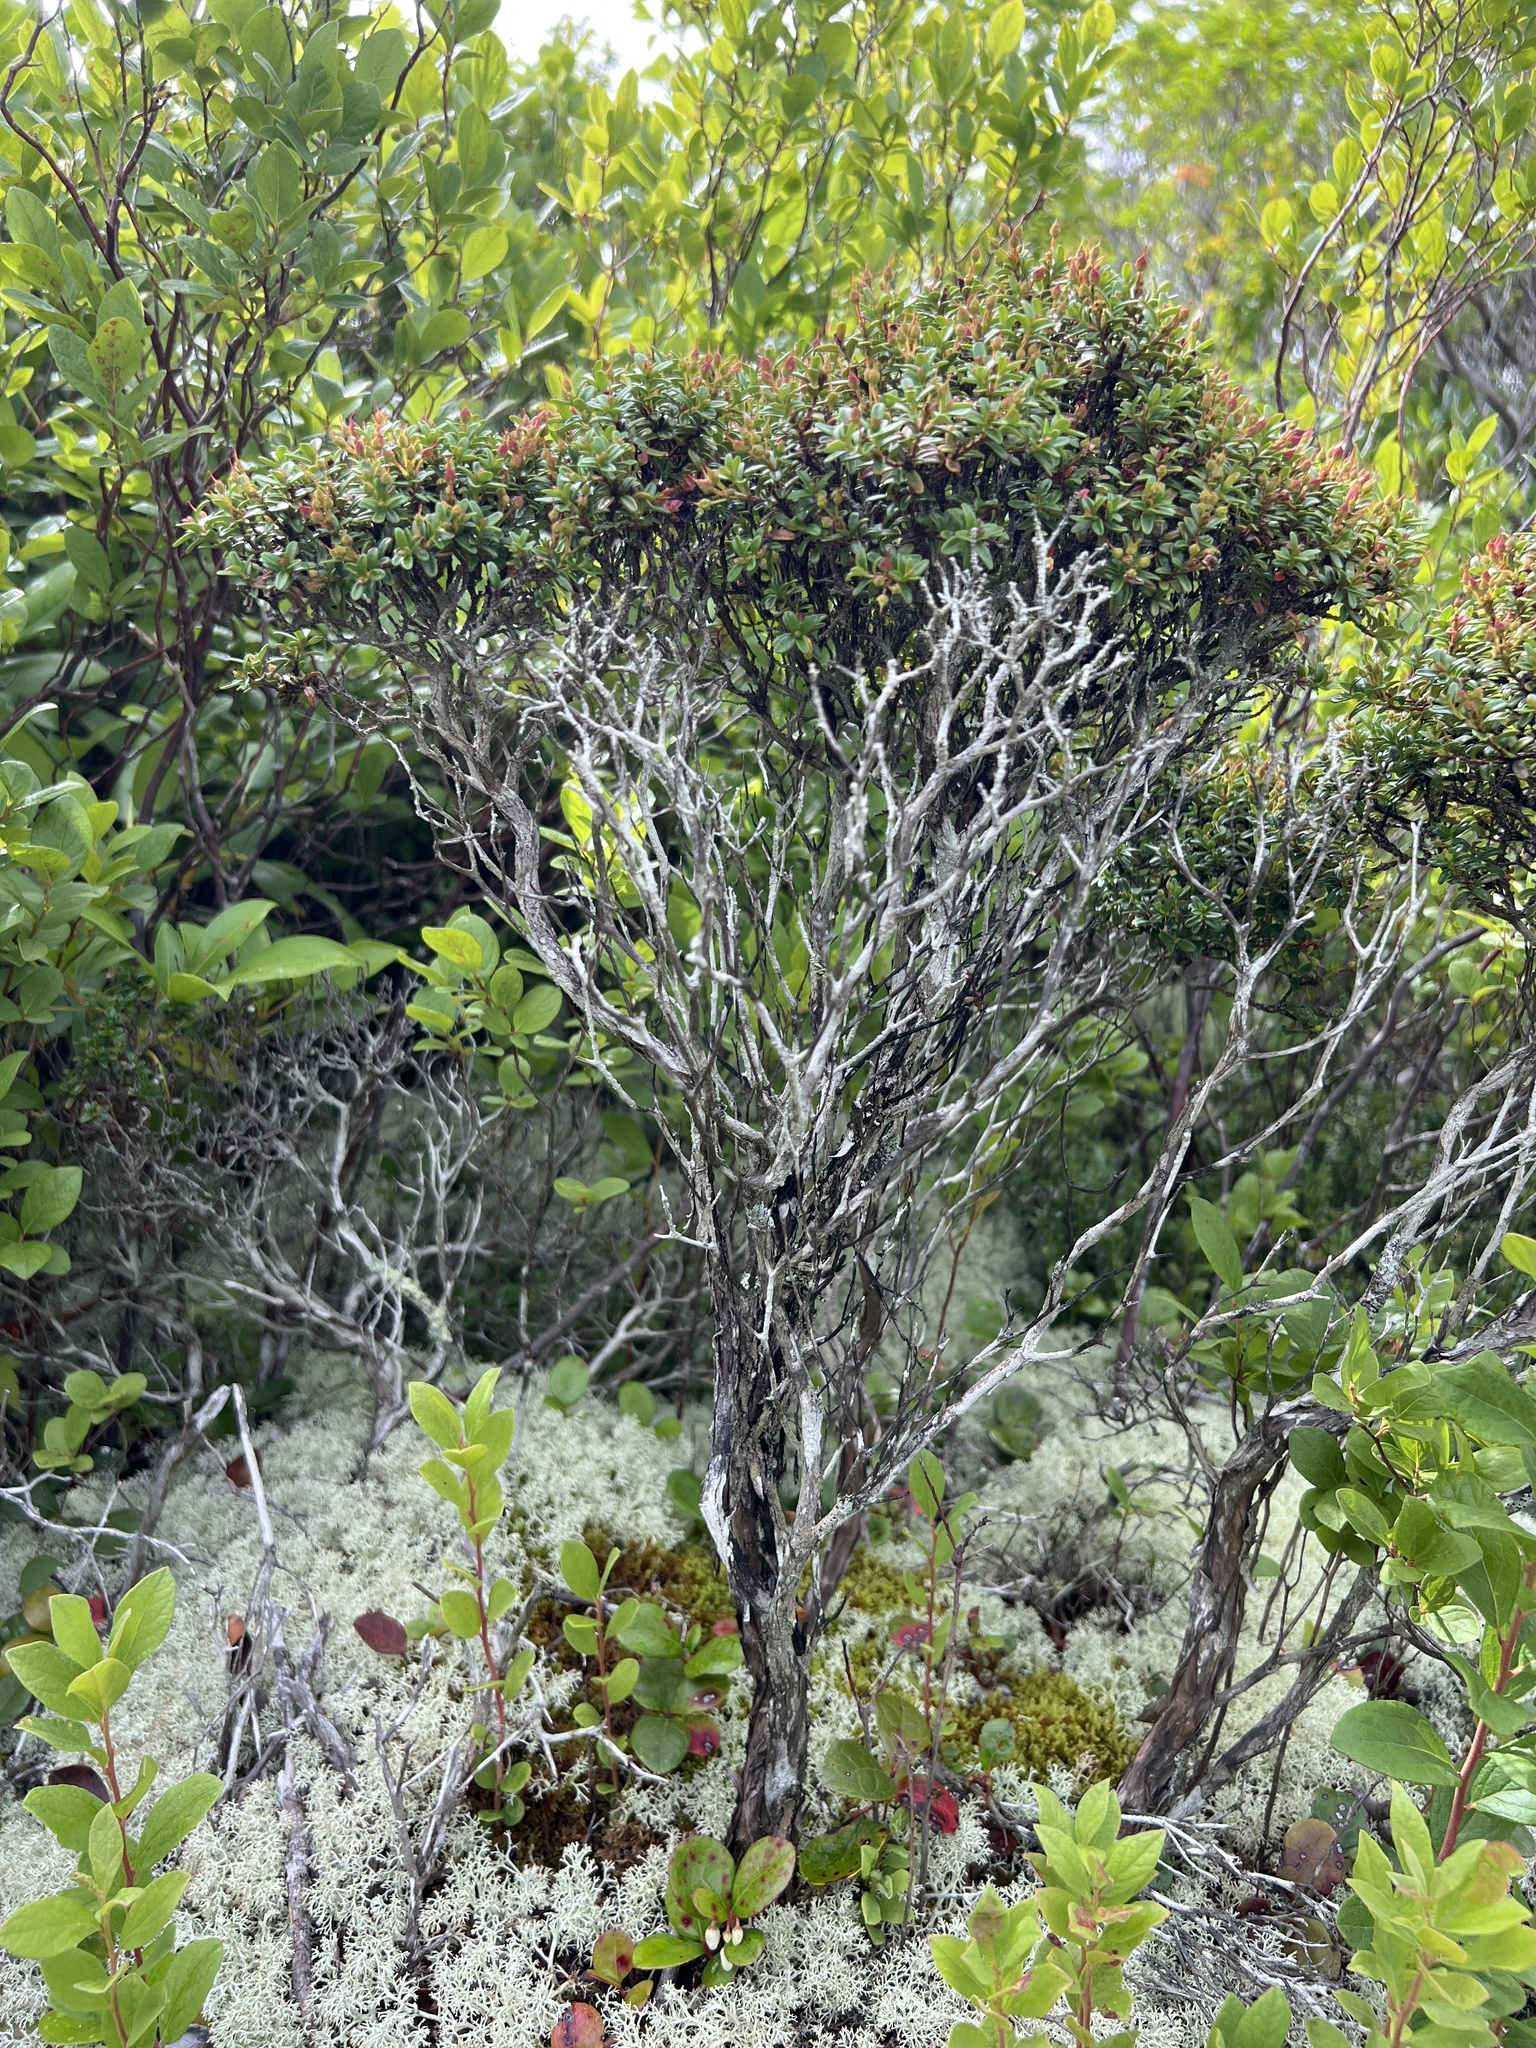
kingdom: Plantae
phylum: Tracheophyta
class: Magnoliopsida
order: Ericales
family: Ericaceae
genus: Kalmia
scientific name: Kalmia buxifolia
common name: Sandmyrtle
